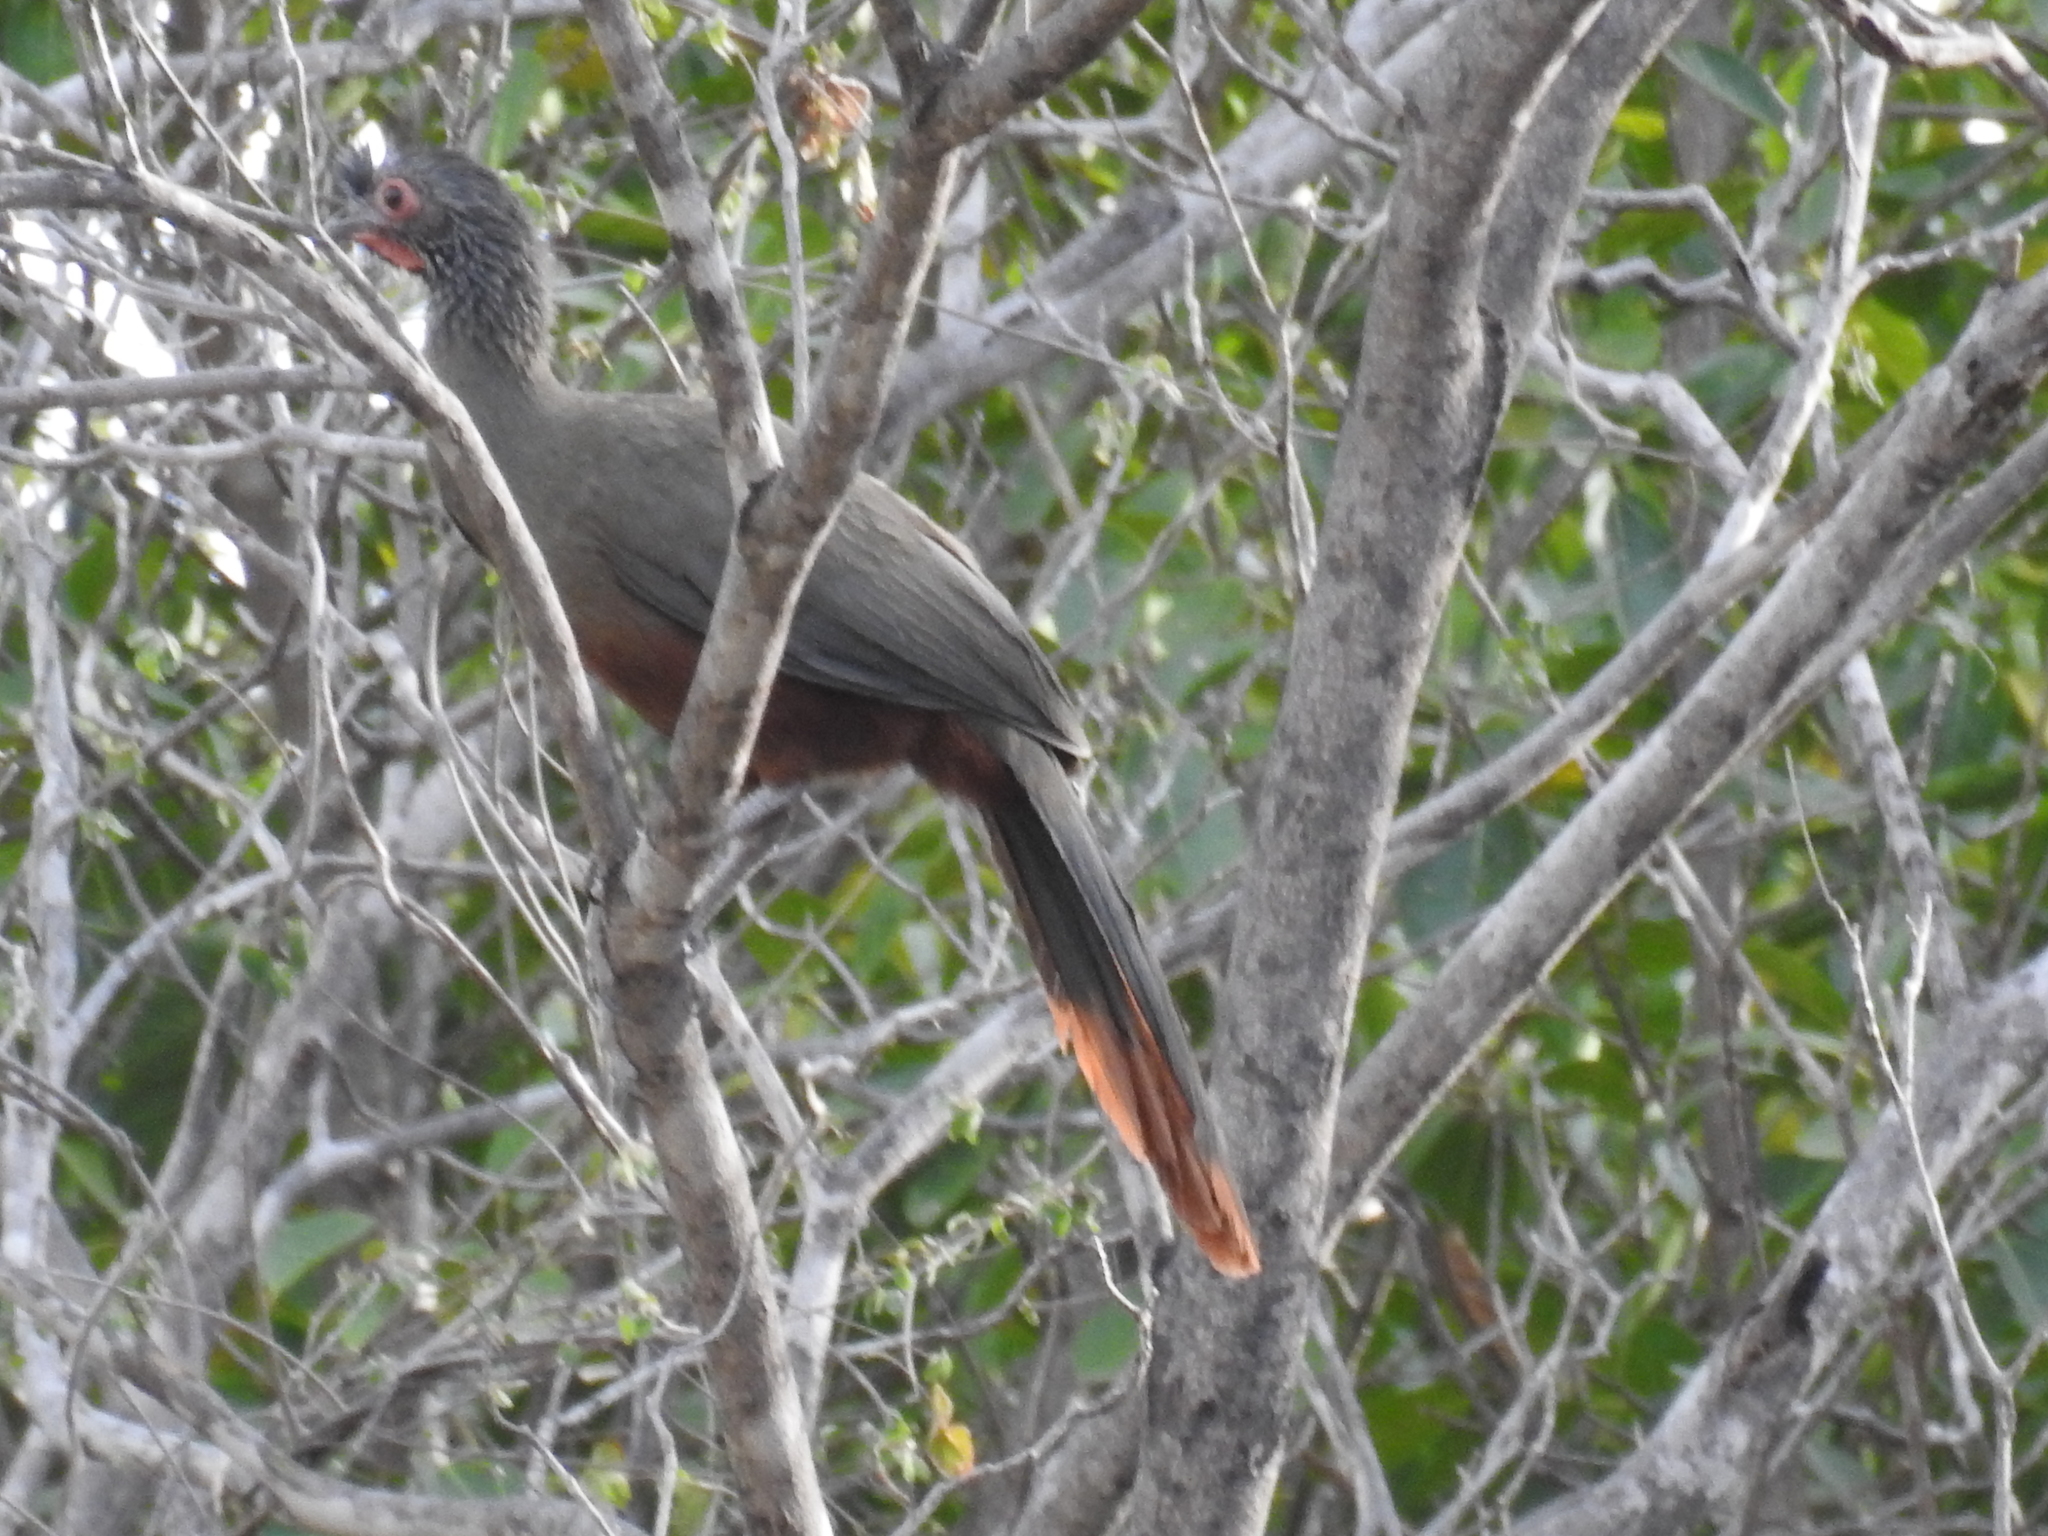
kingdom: Animalia
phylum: Chordata
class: Aves
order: Galliformes
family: Cracidae
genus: Ortalis
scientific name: Ortalis wagleri
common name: Rufous-bellied chachalaca
